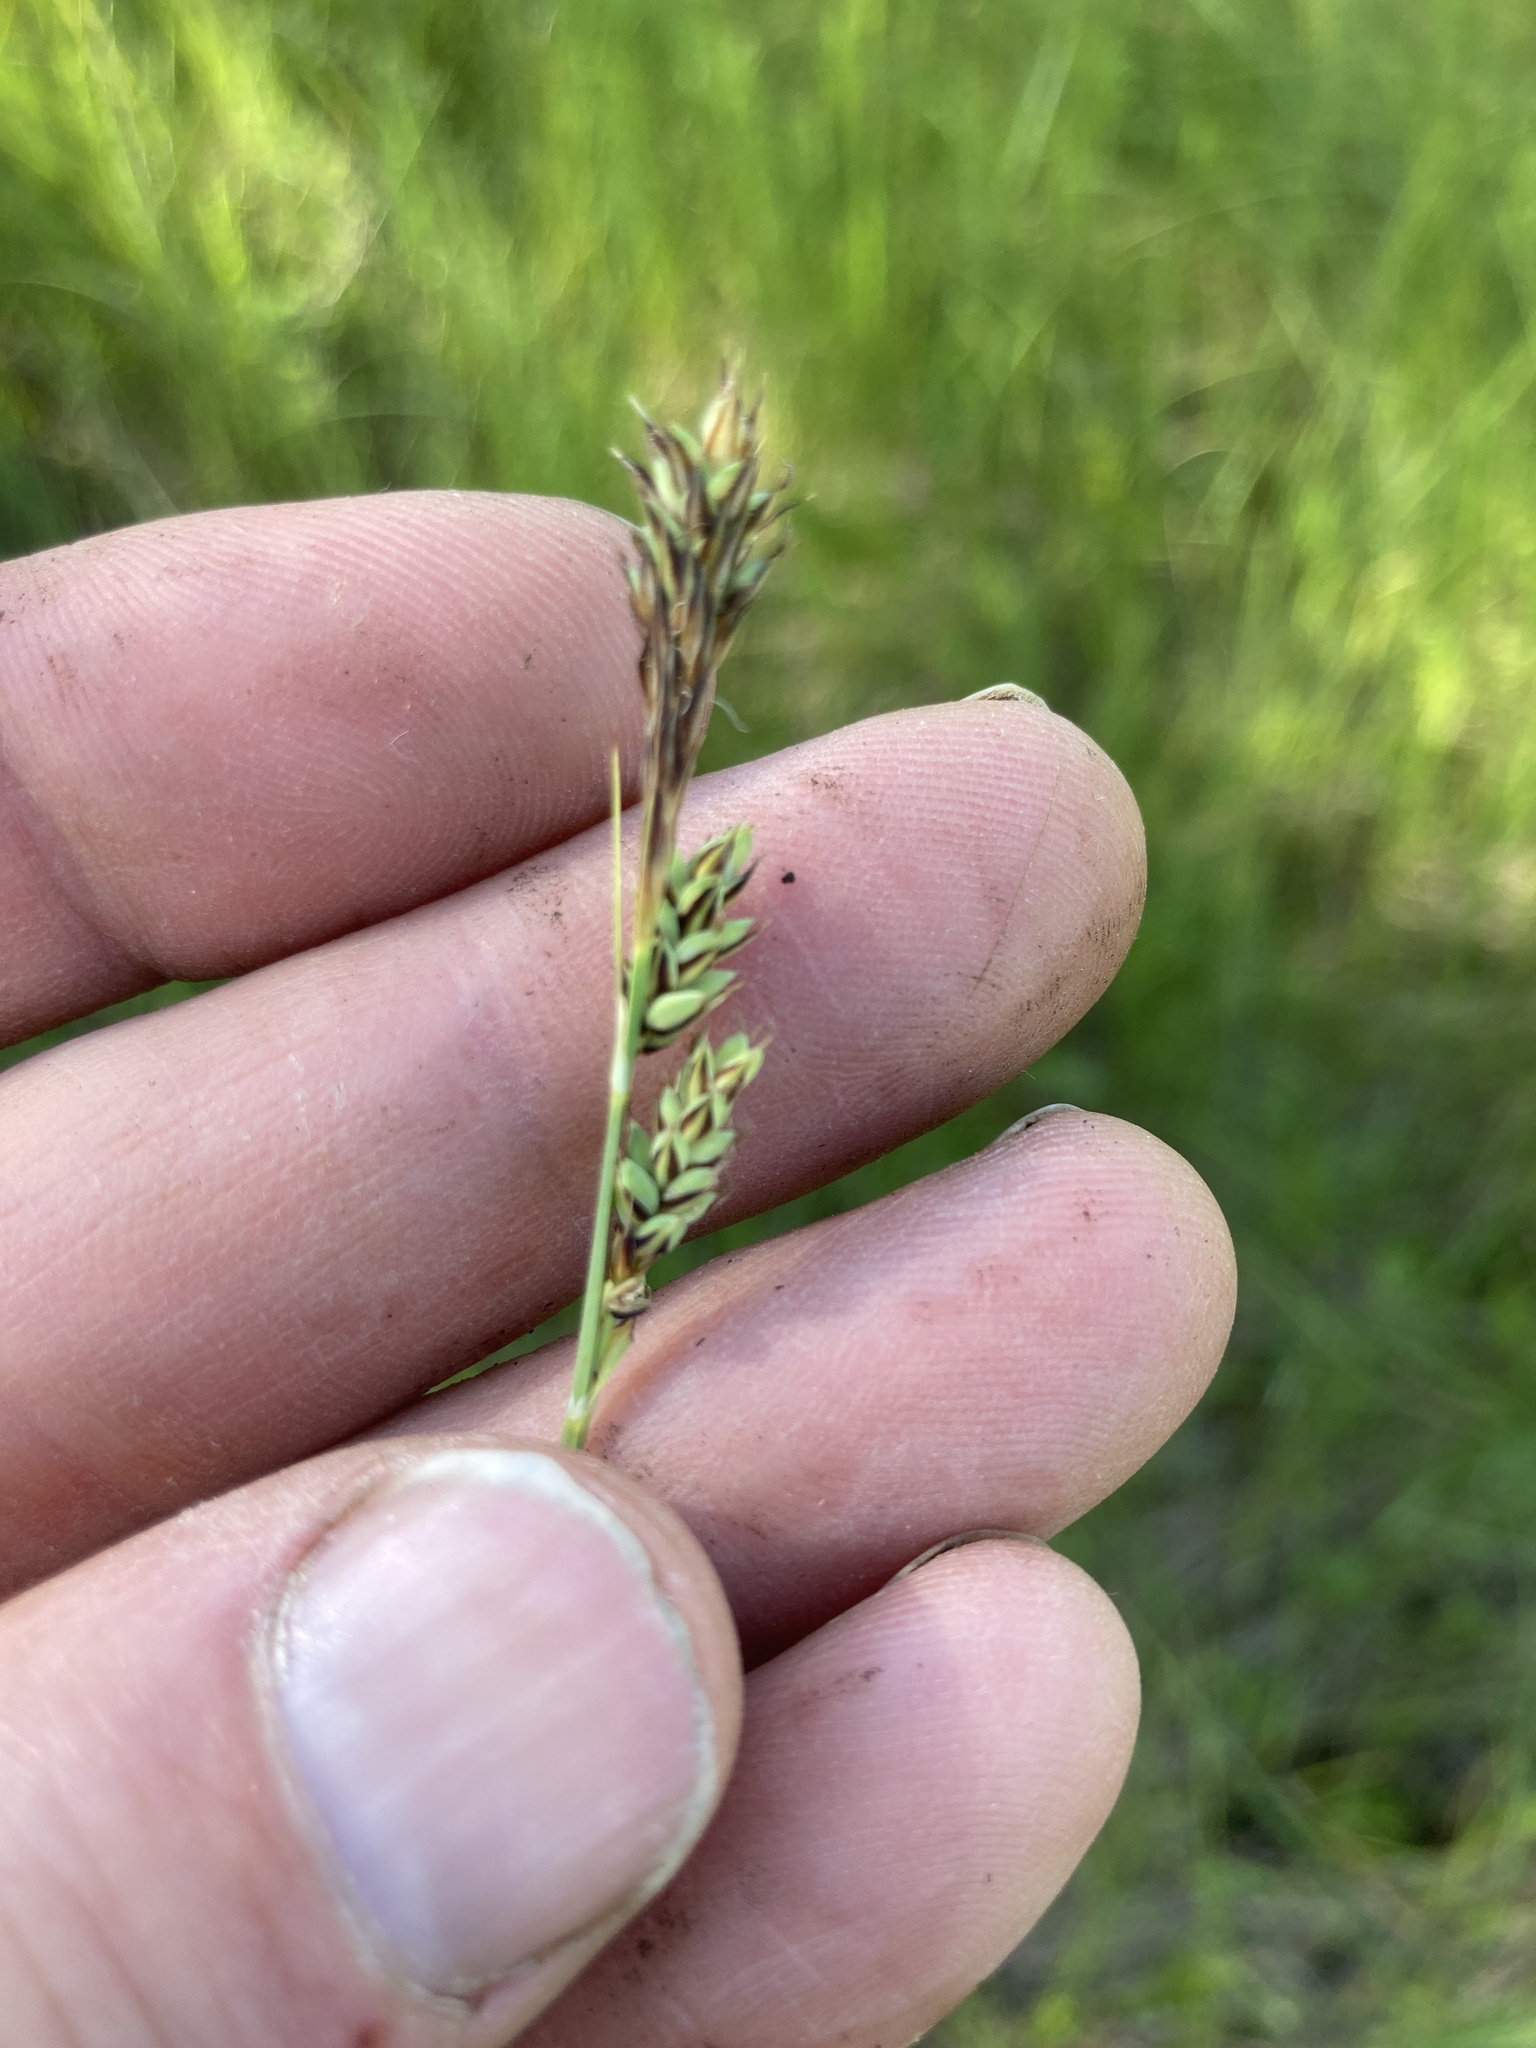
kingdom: Plantae
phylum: Tracheophyta
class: Liliopsida
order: Poales
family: Cyperaceae
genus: Carex
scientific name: Carex buxbaumii
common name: Club sedge
